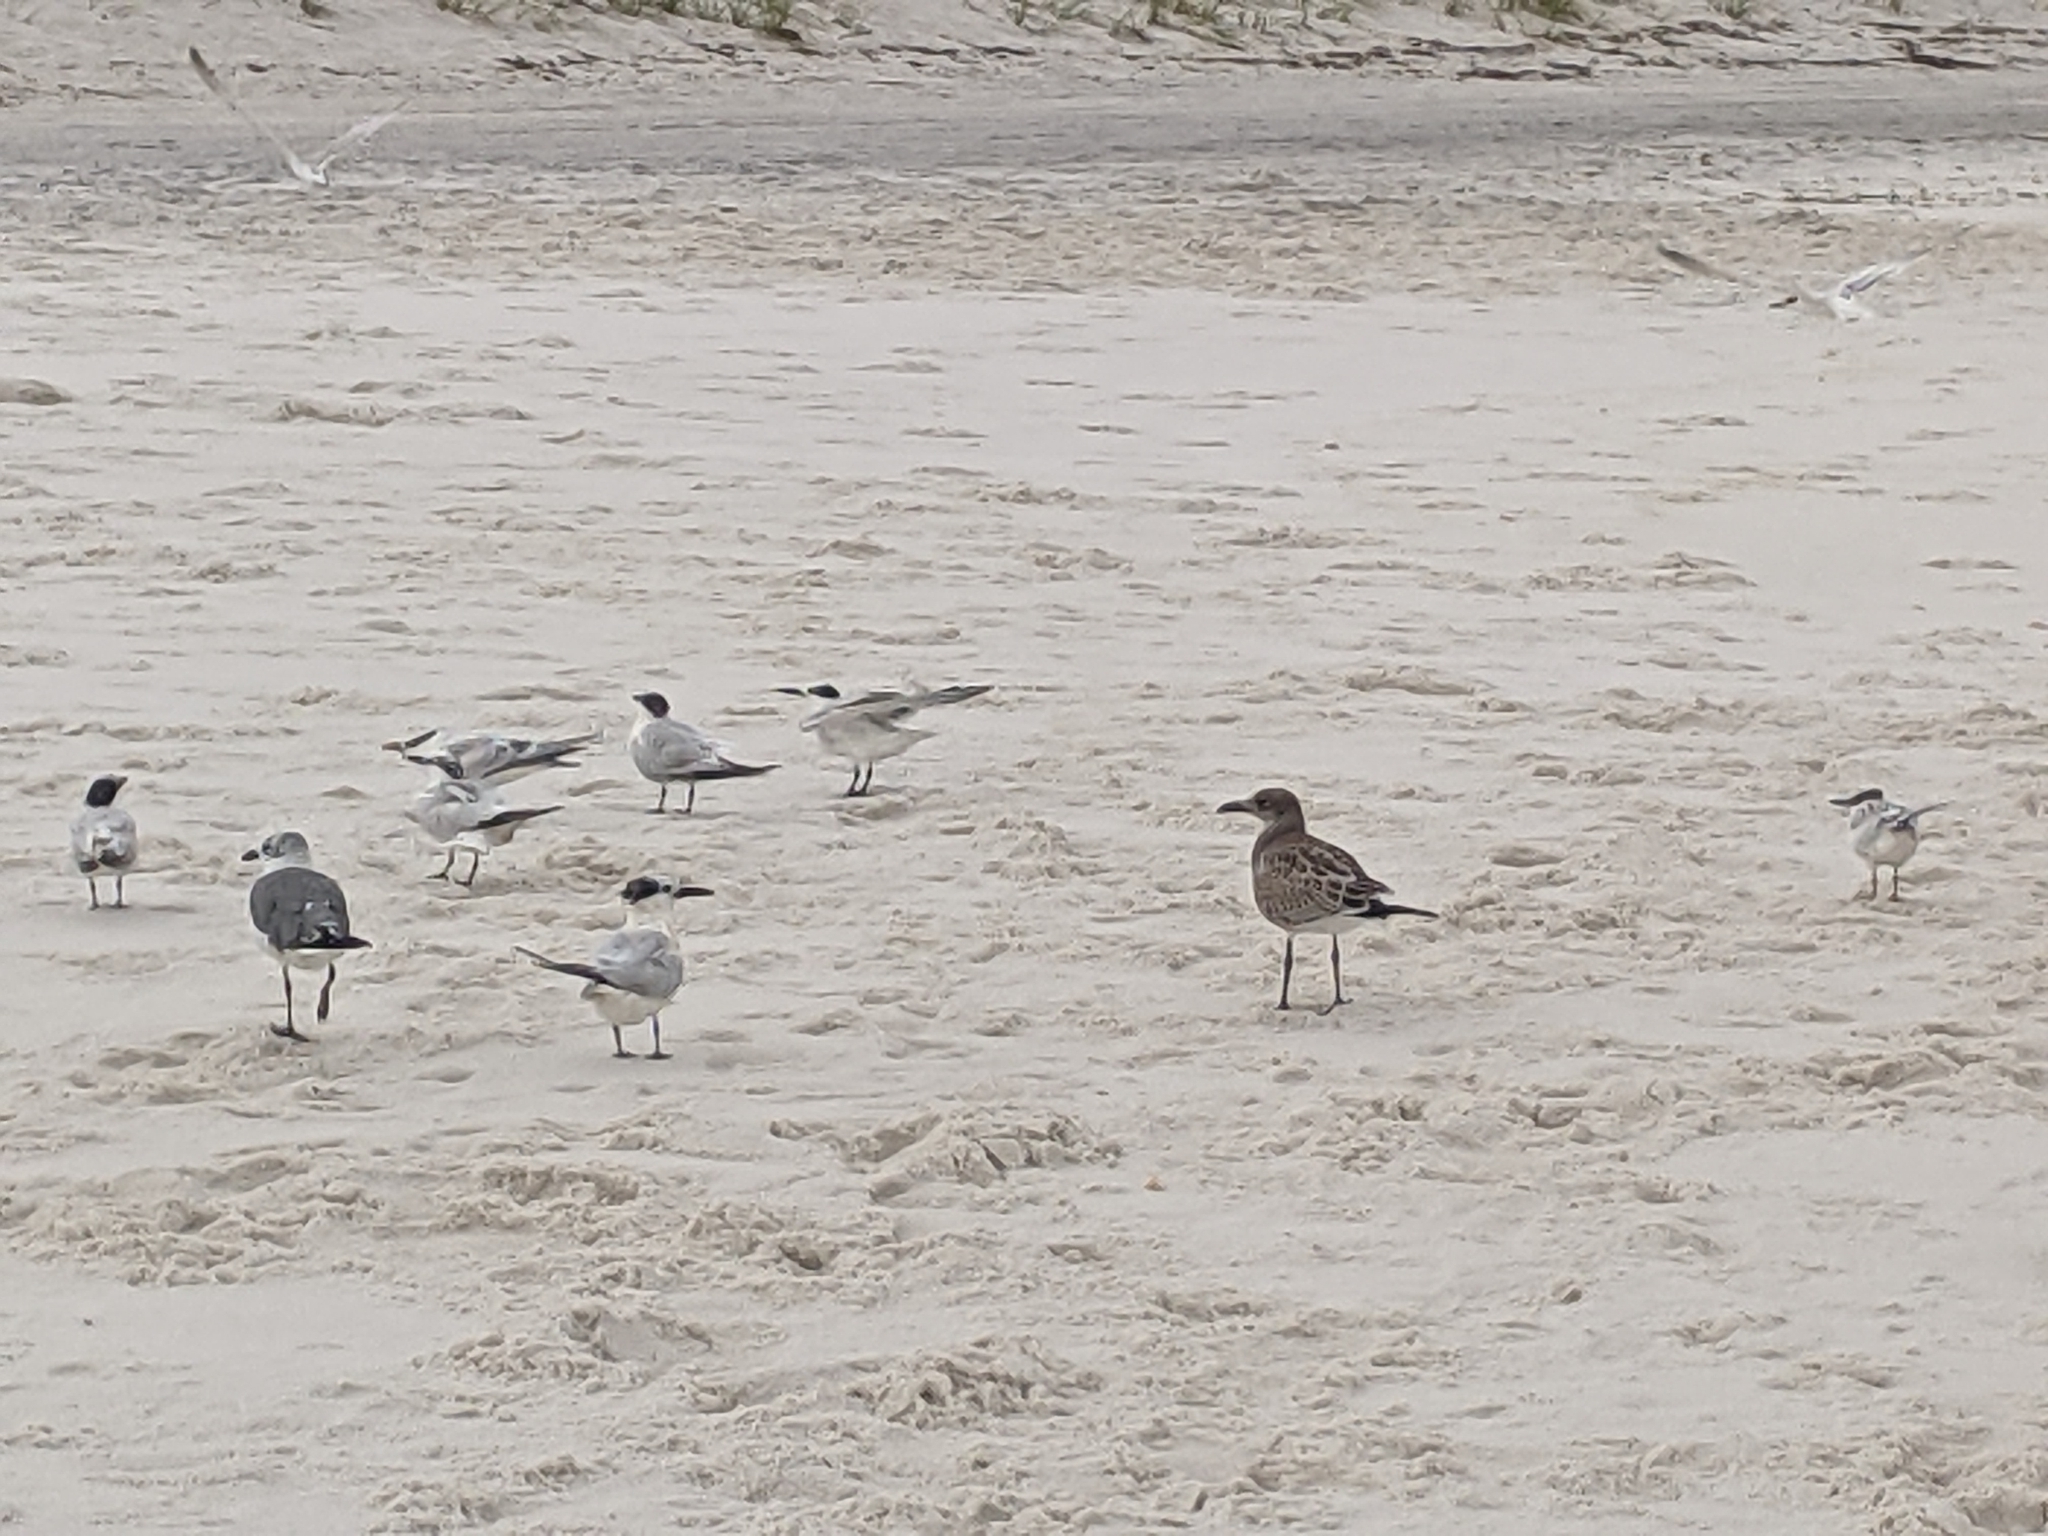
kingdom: Animalia
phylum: Chordata
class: Aves
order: Charadriiformes
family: Laridae
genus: Leucophaeus
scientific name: Leucophaeus atricilla
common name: Laughing gull
